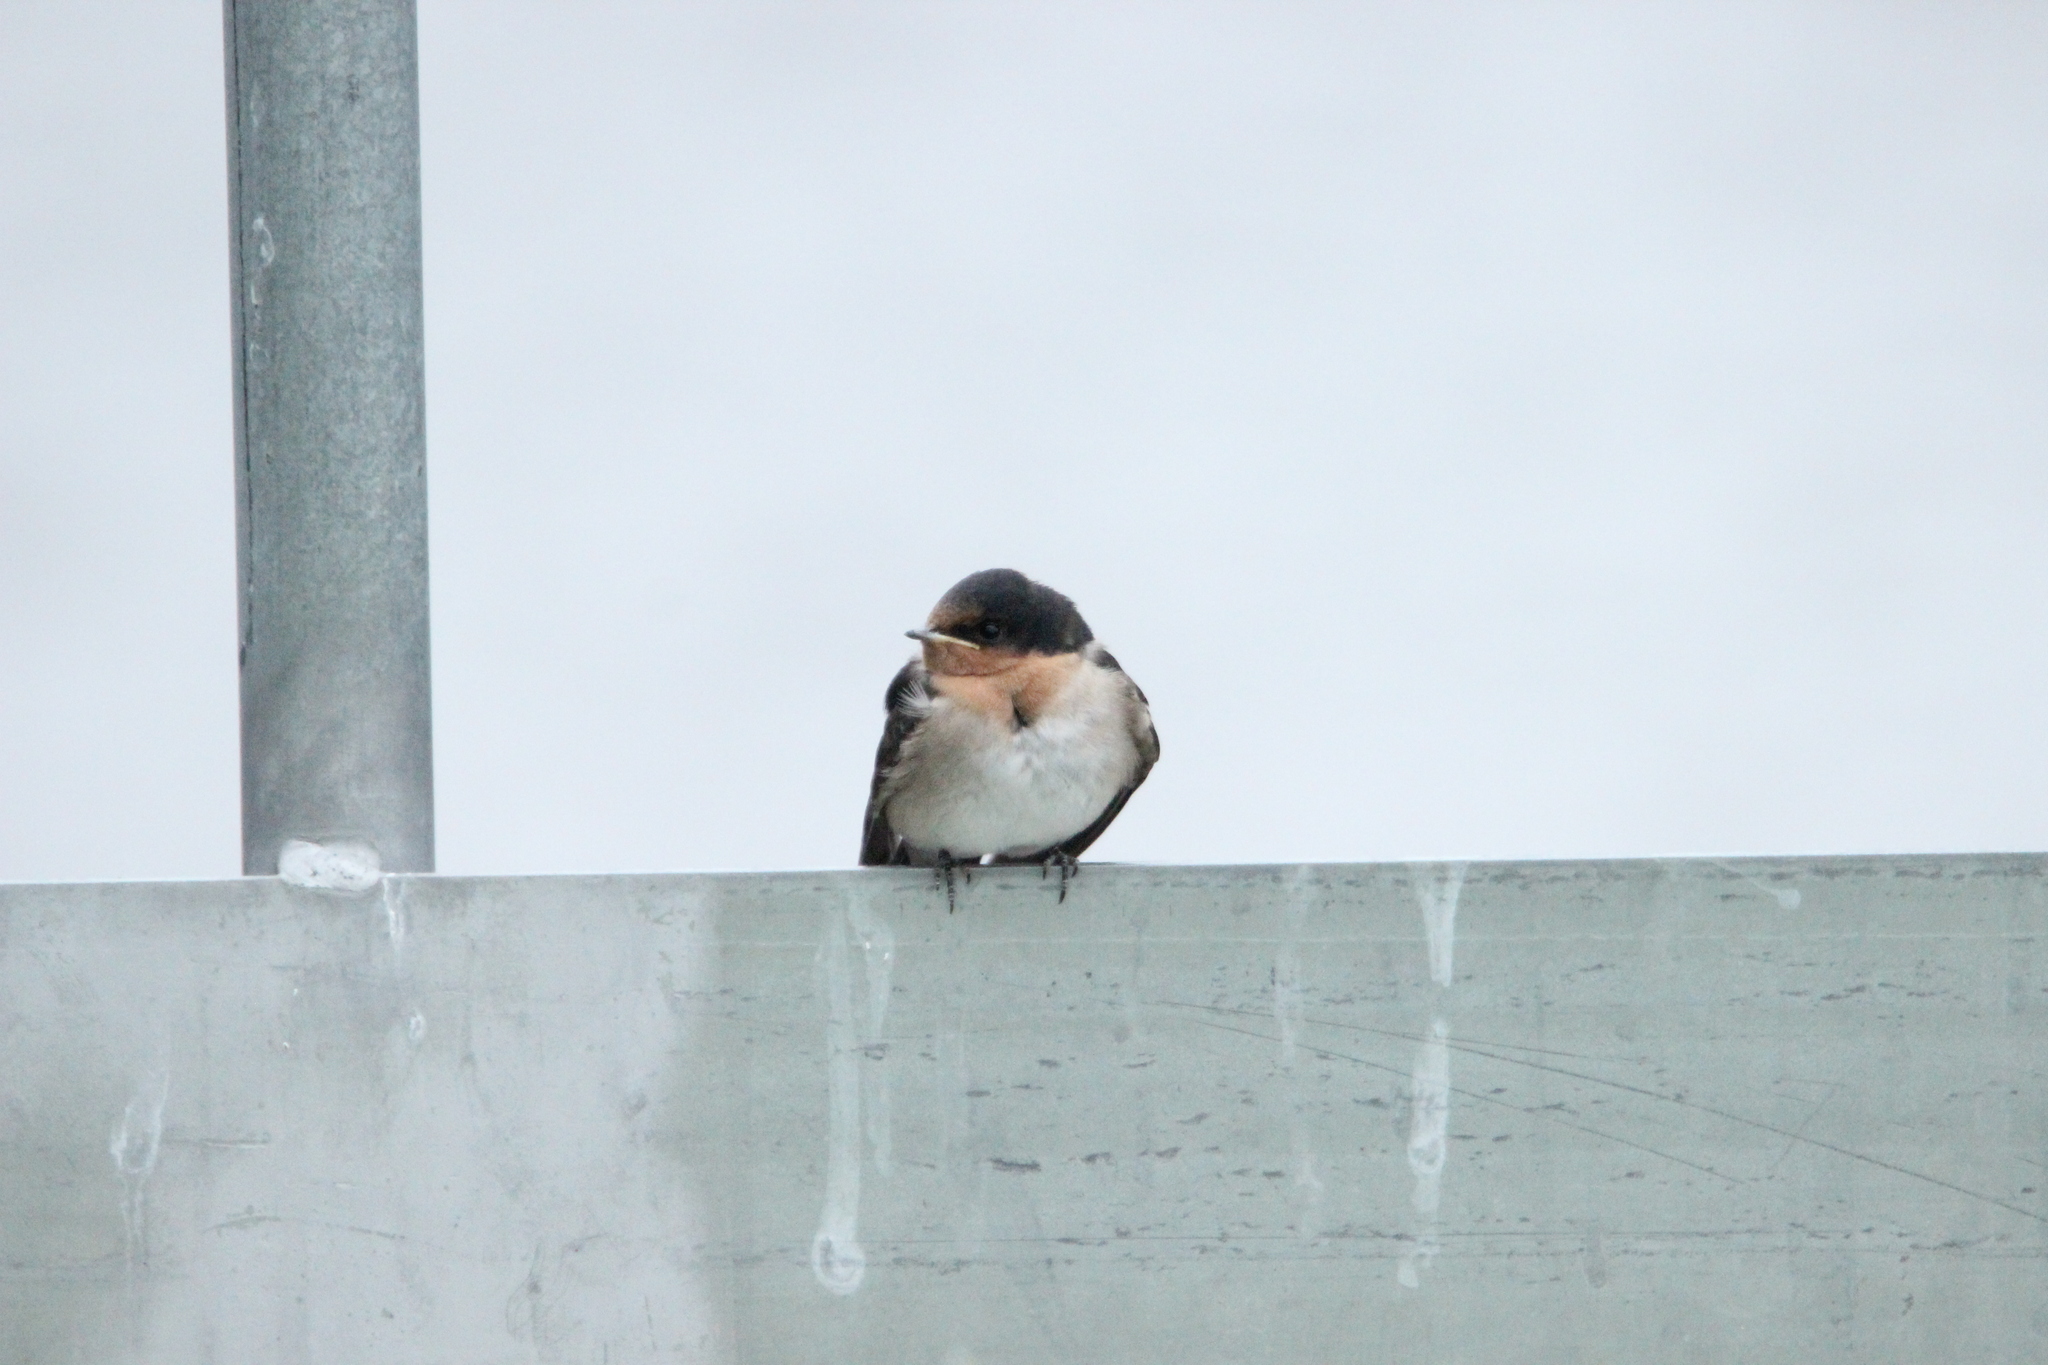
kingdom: Animalia
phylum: Chordata
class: Aves
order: Passeriformes
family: Hirundinidae
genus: Hirundo
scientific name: Hirundo neoxena
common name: Welcome swallow
